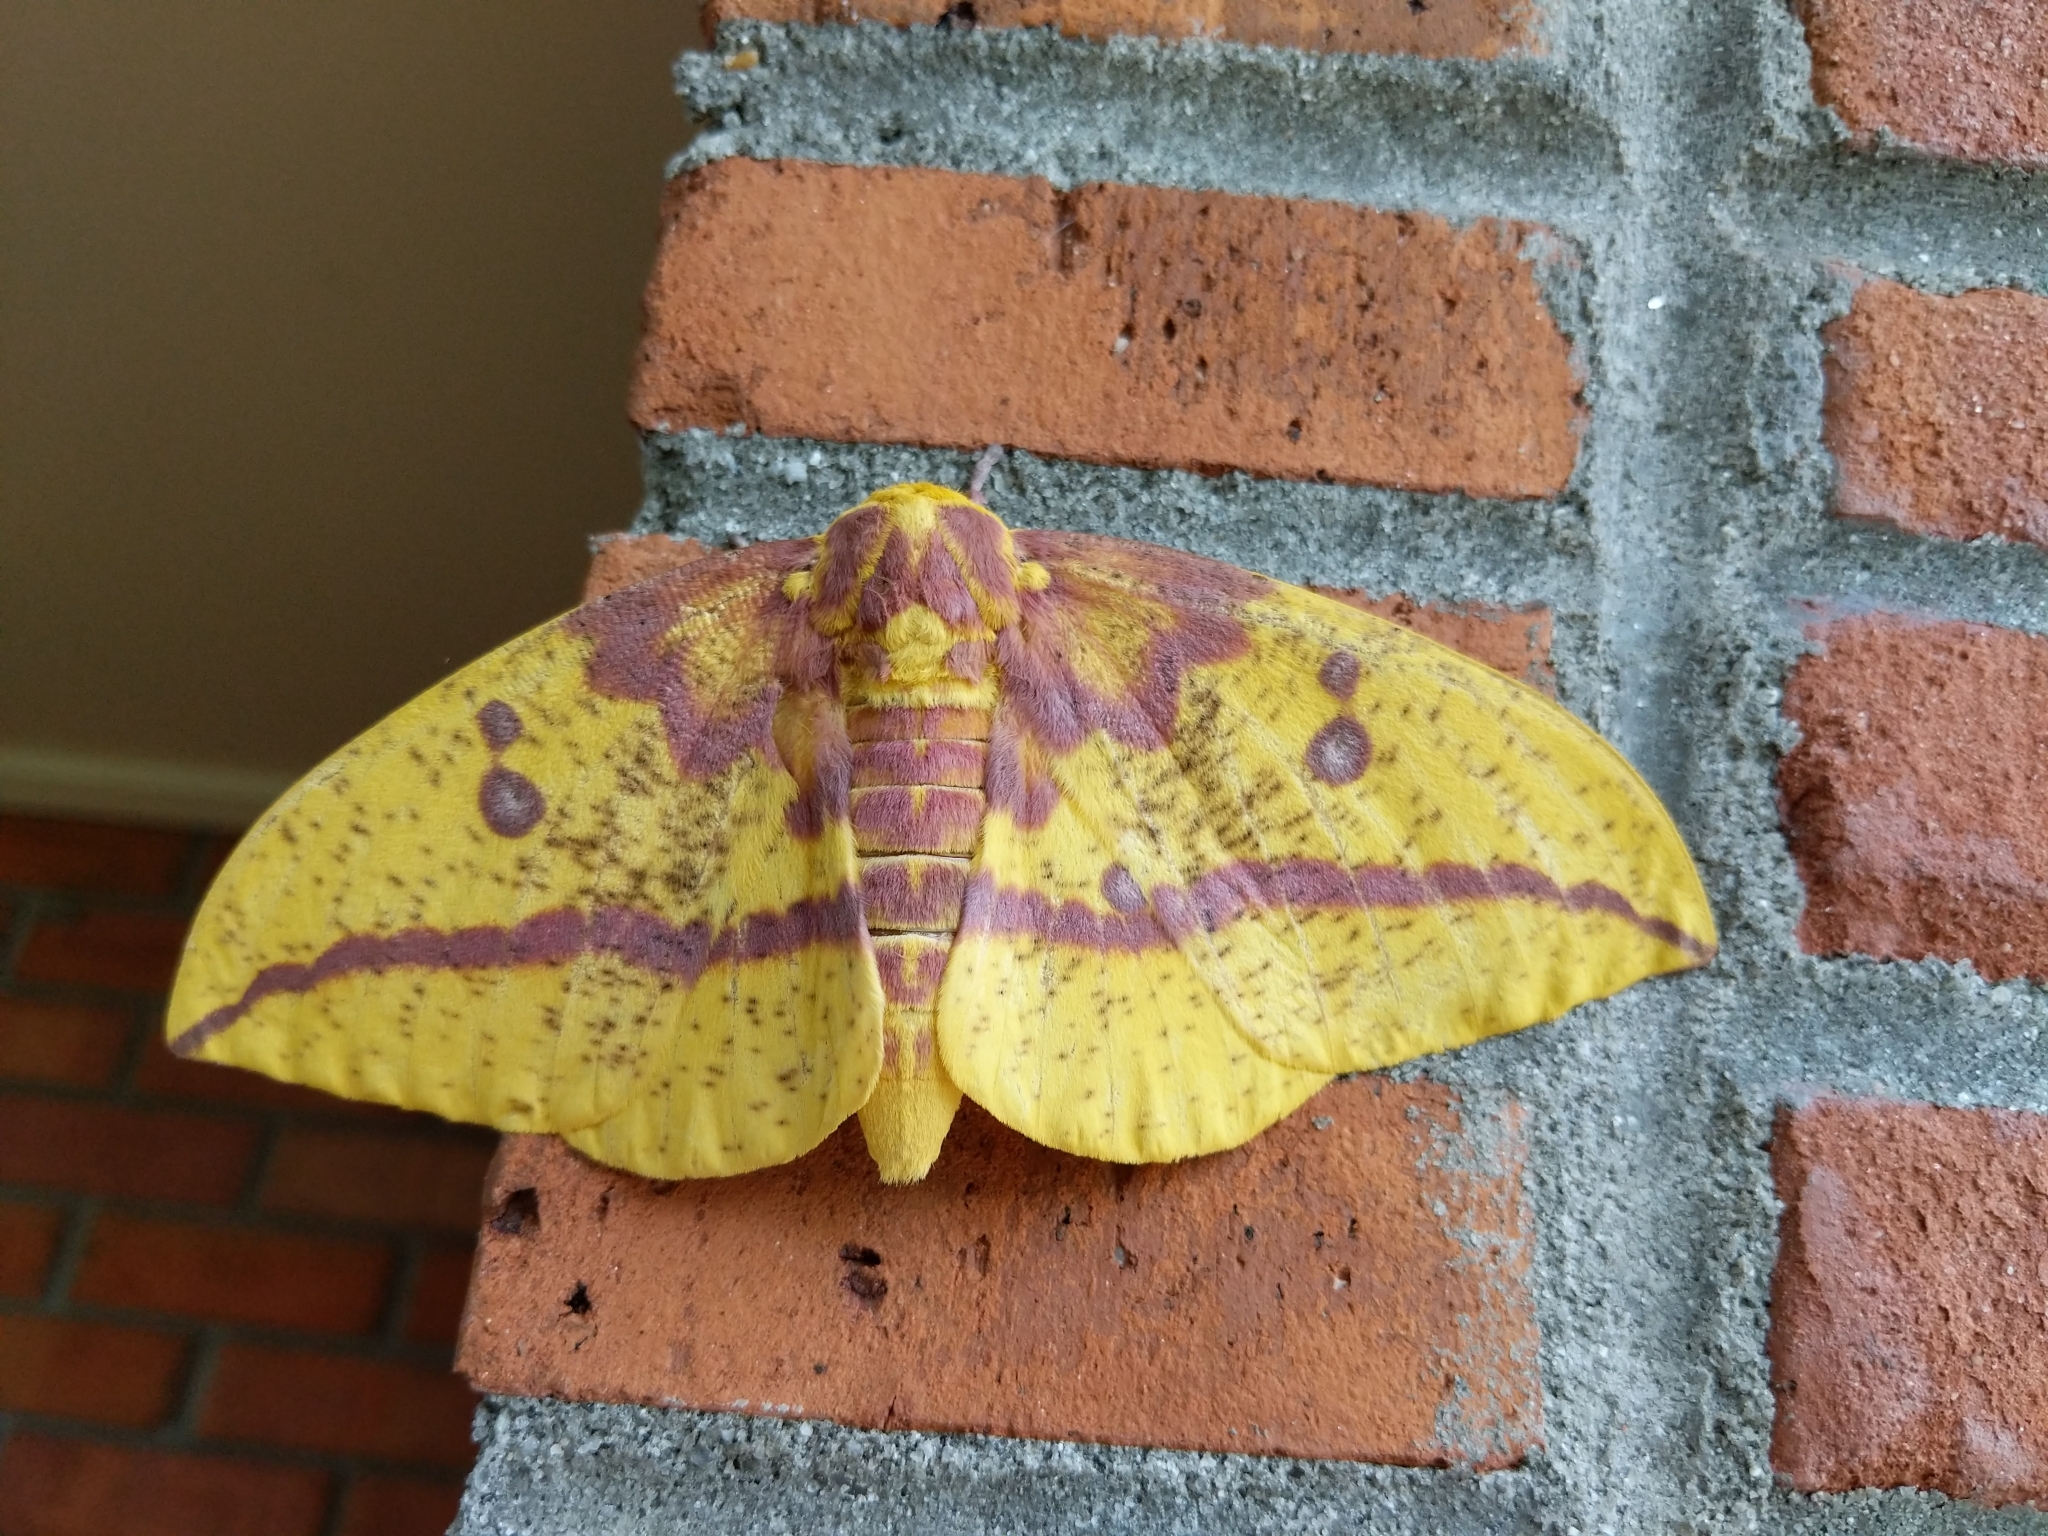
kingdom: Animalia
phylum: Arthropoda
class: Insecta
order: Lepidoptera
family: Saturniidae
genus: Eacles
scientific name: Eacles imperialis
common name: Imperial moth
